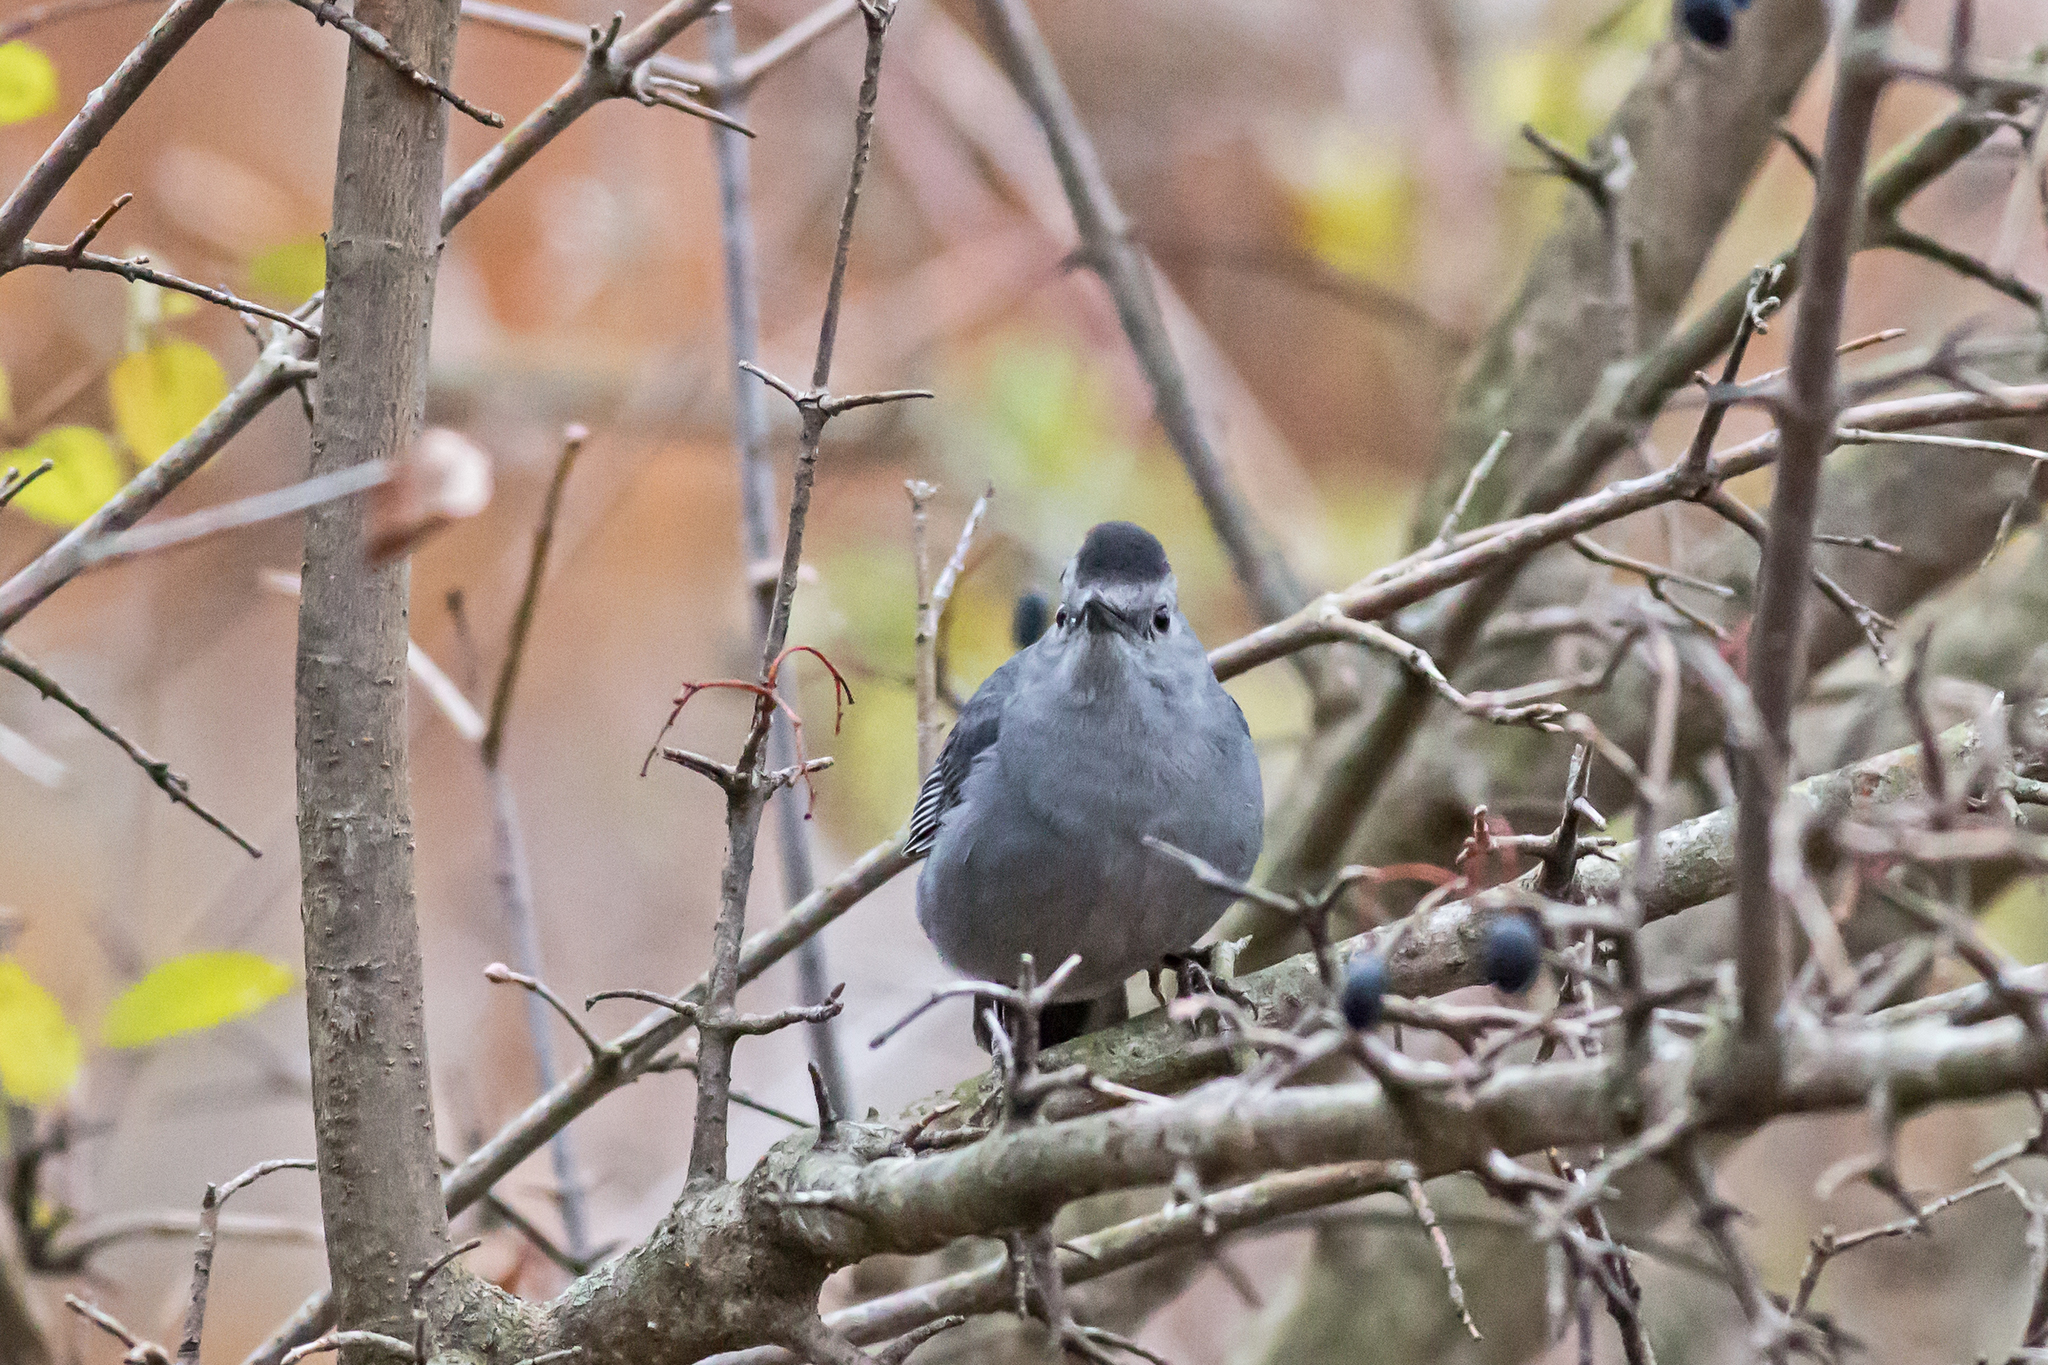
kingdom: Animalia
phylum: Chordata
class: Aves
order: Passeriformes
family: Mimidae
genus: Dumetella
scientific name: Dumetella carolinensis
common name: Gray catbird
